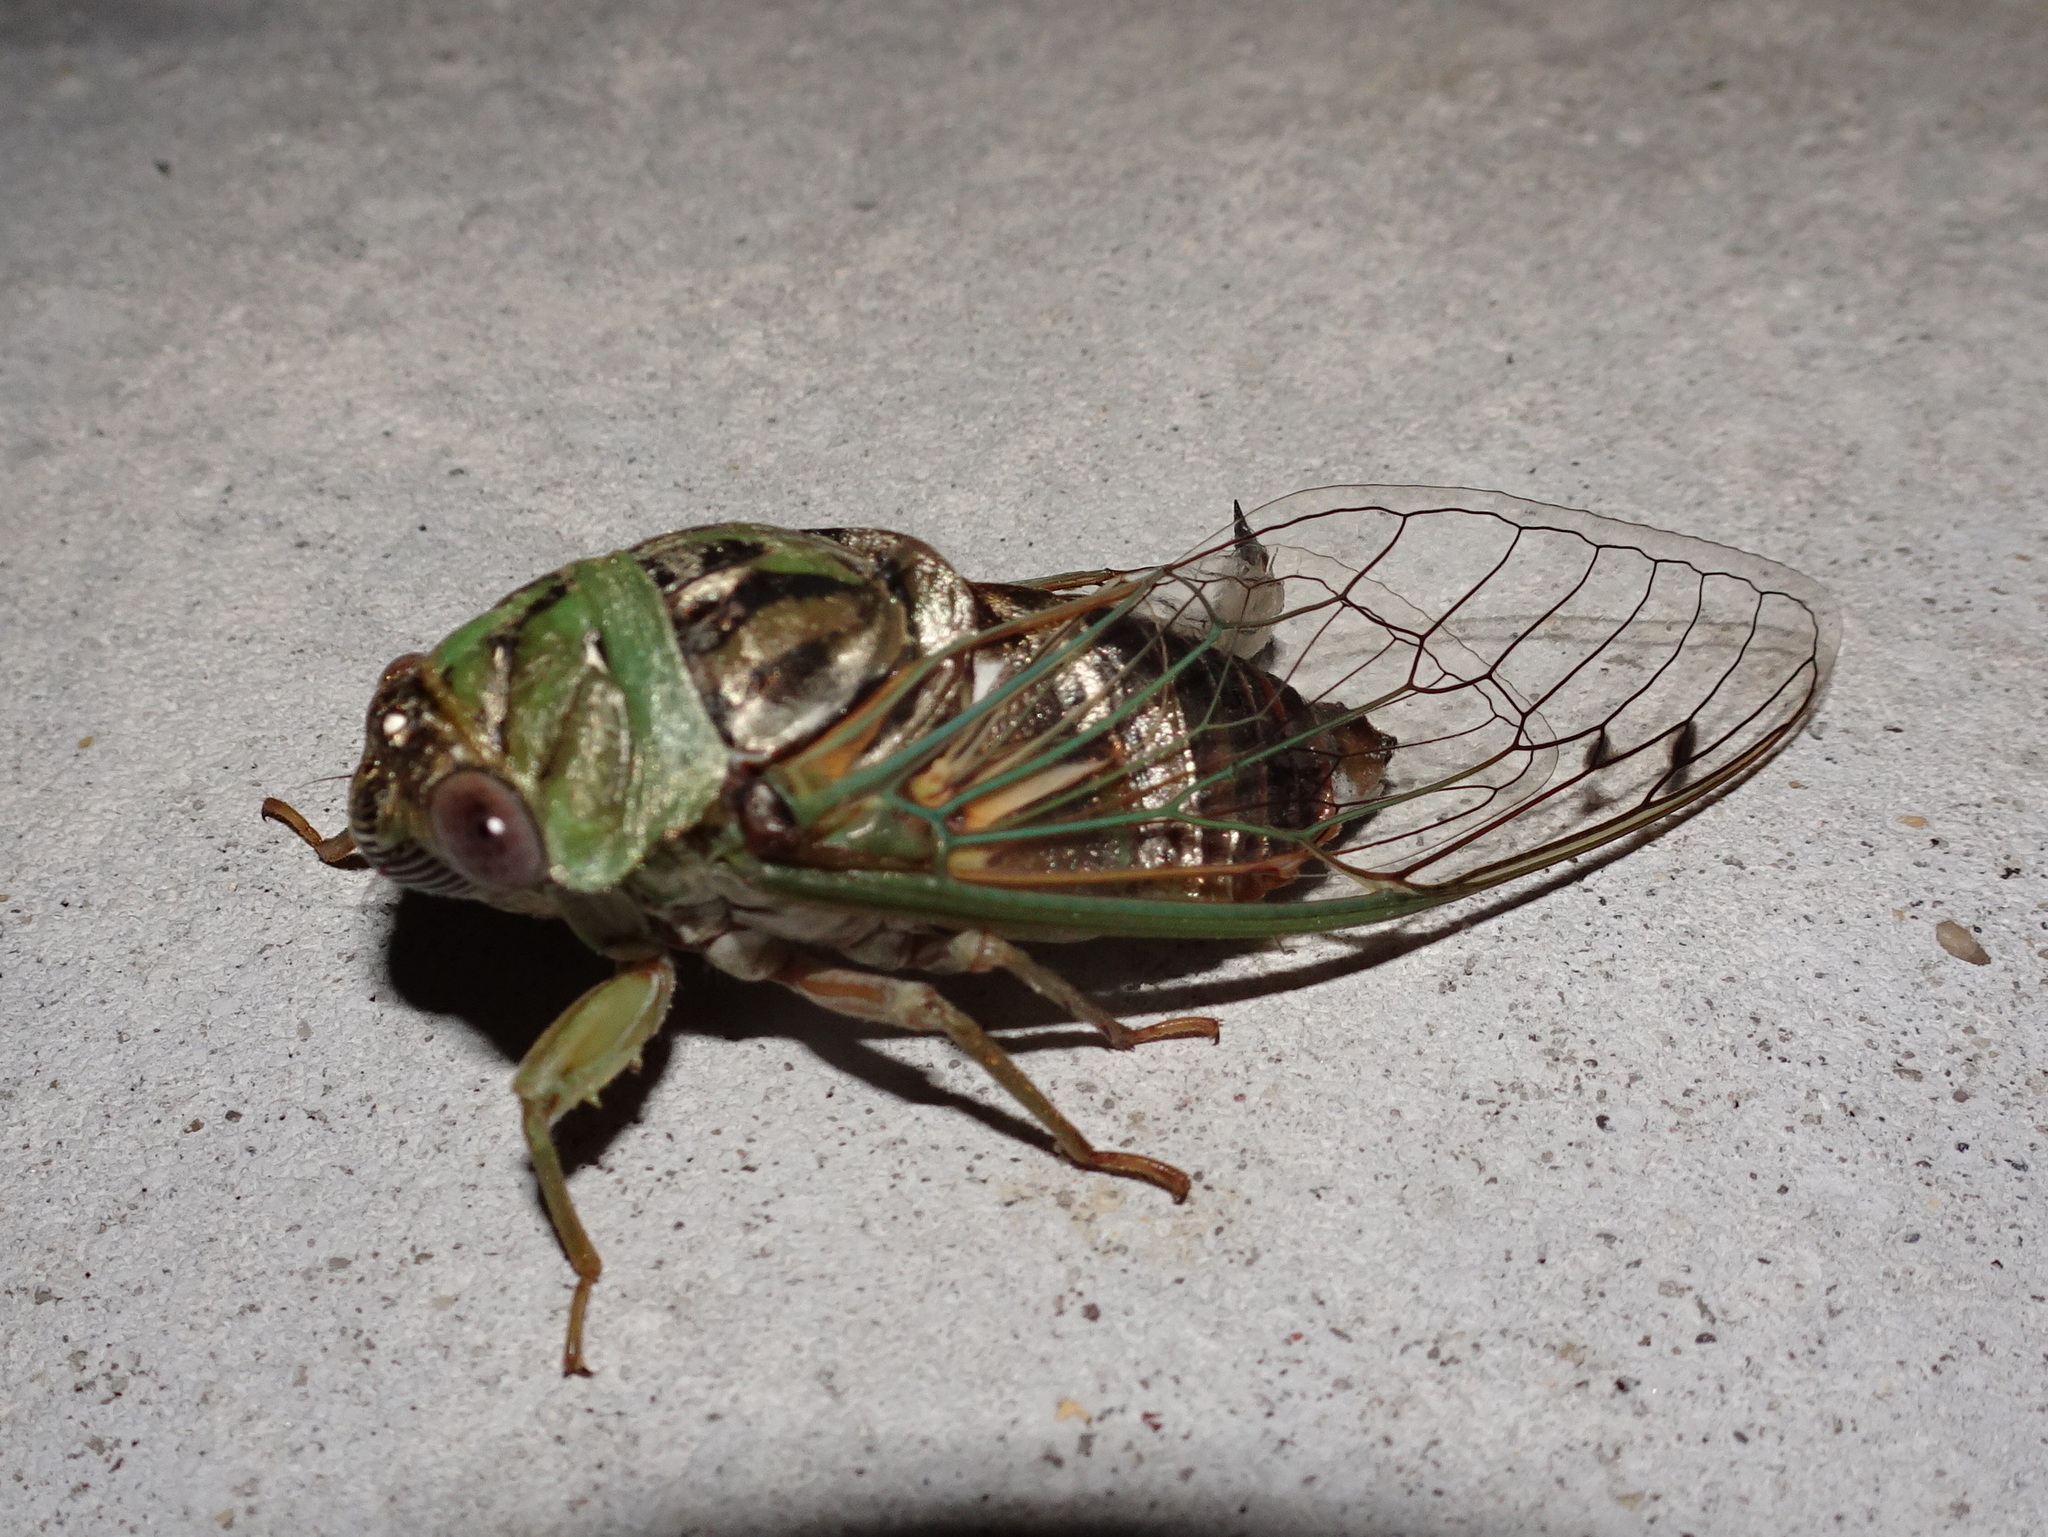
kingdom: Animalia
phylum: Arthropoda
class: Insecta
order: Hemiptera
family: Cicadidae
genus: Megatibicen
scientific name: Megatibicen resh
